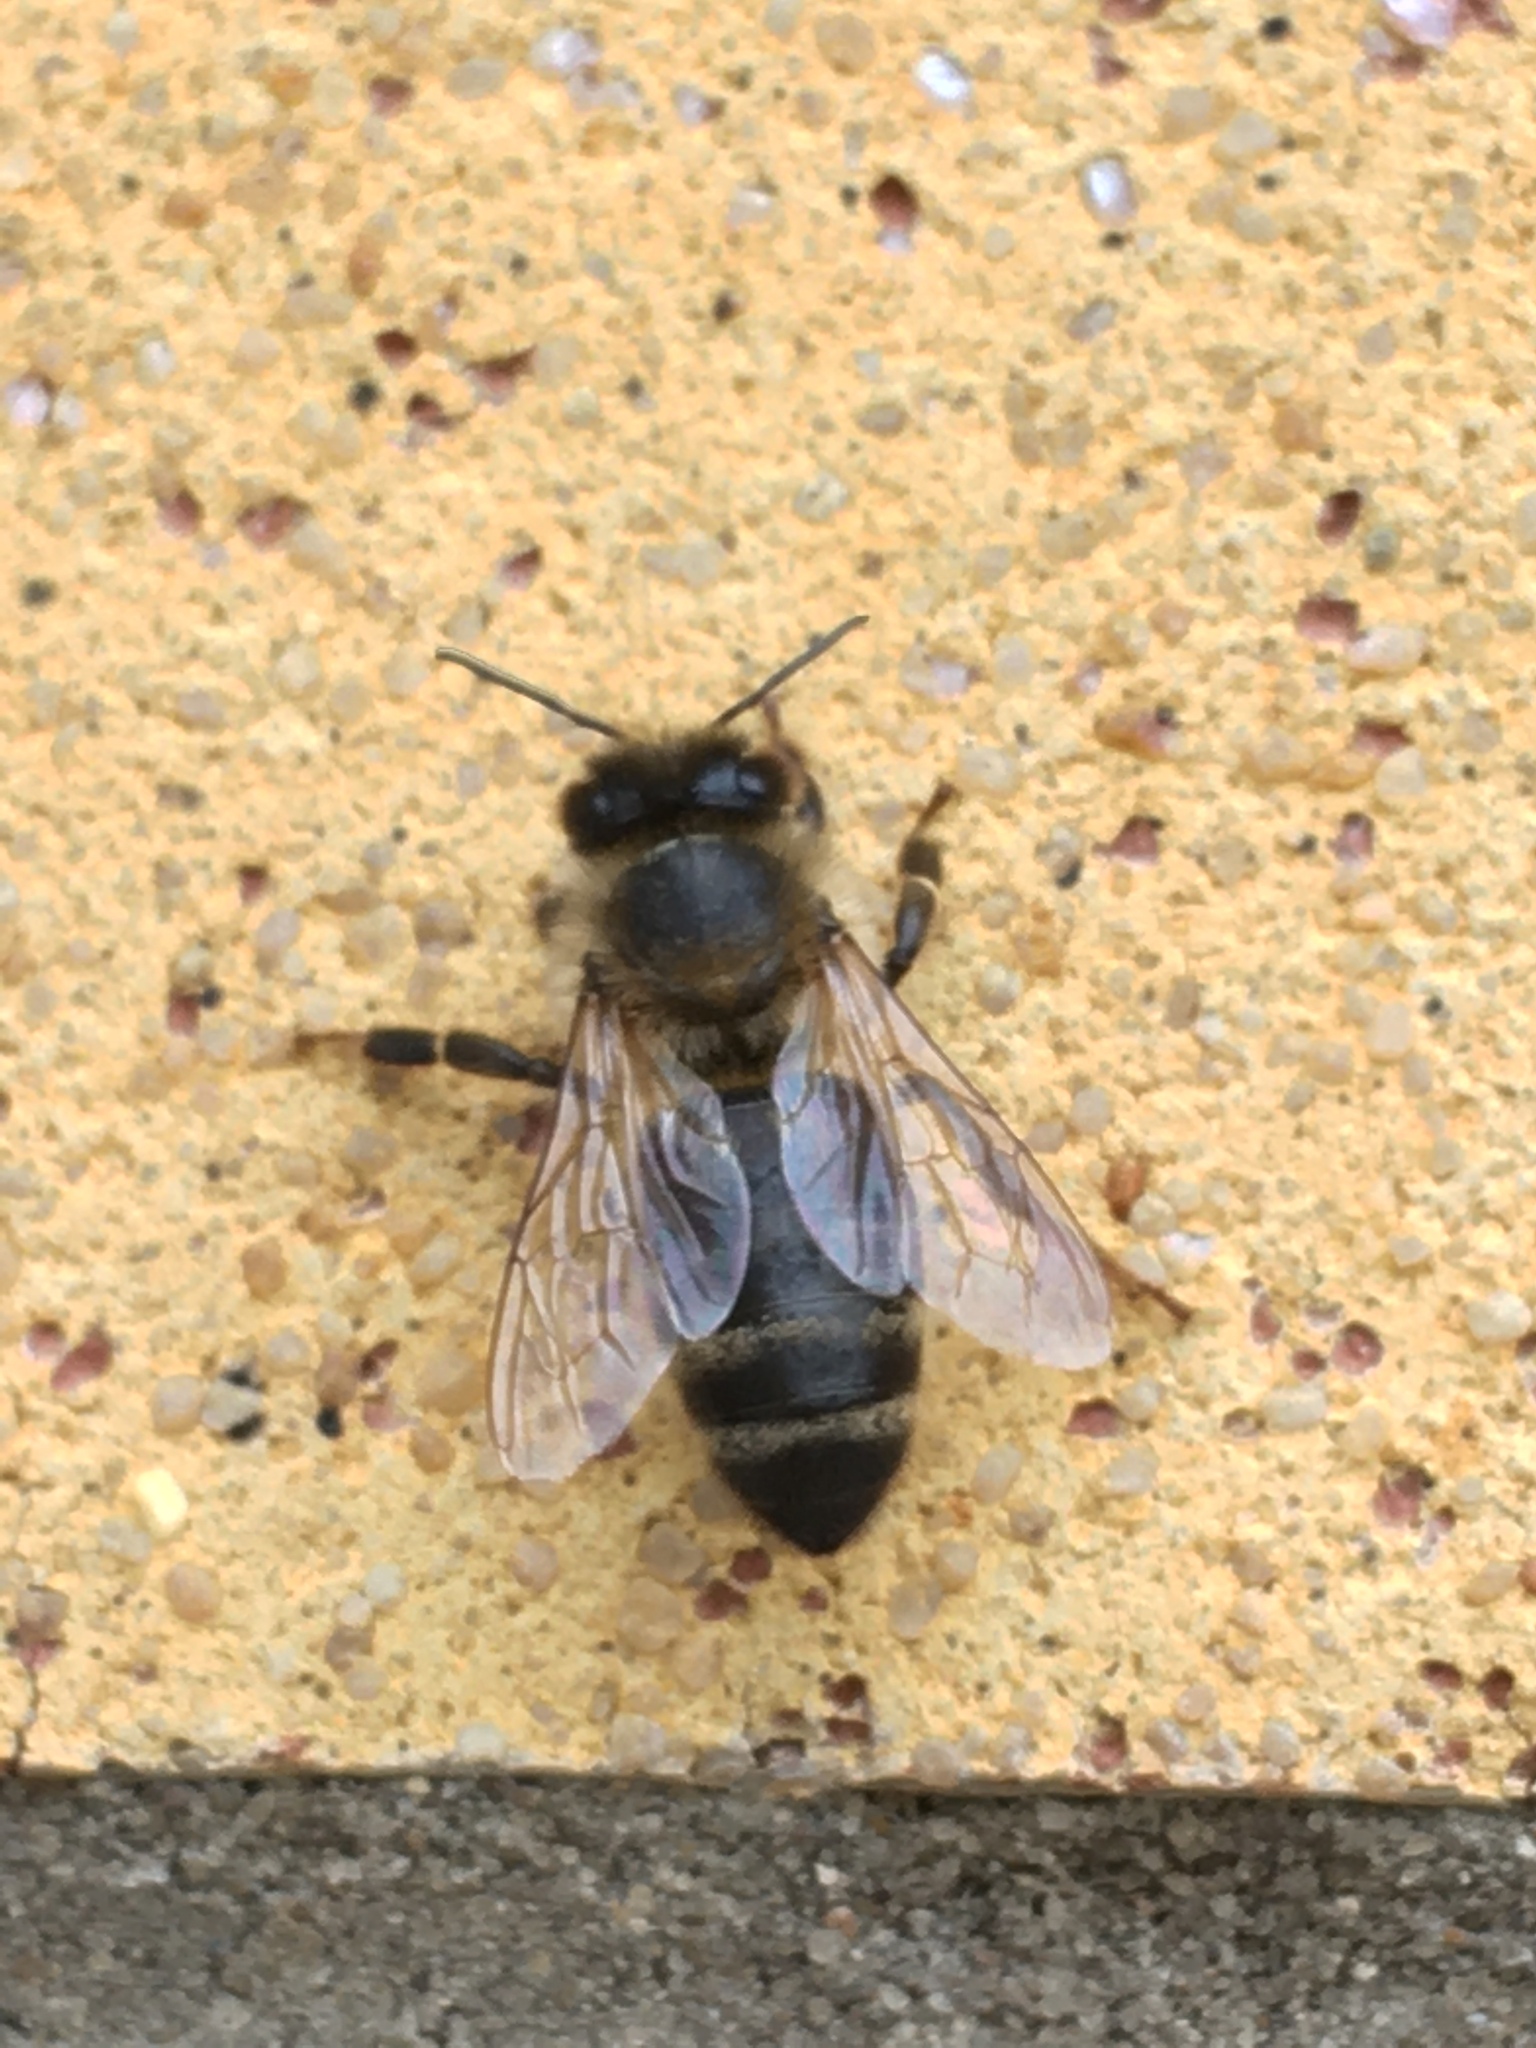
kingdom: Animalia
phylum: Arthropoda
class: Insecta
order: Hymenoptera
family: Apidae
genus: Apis
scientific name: Apis mellifera
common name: Honey bee
